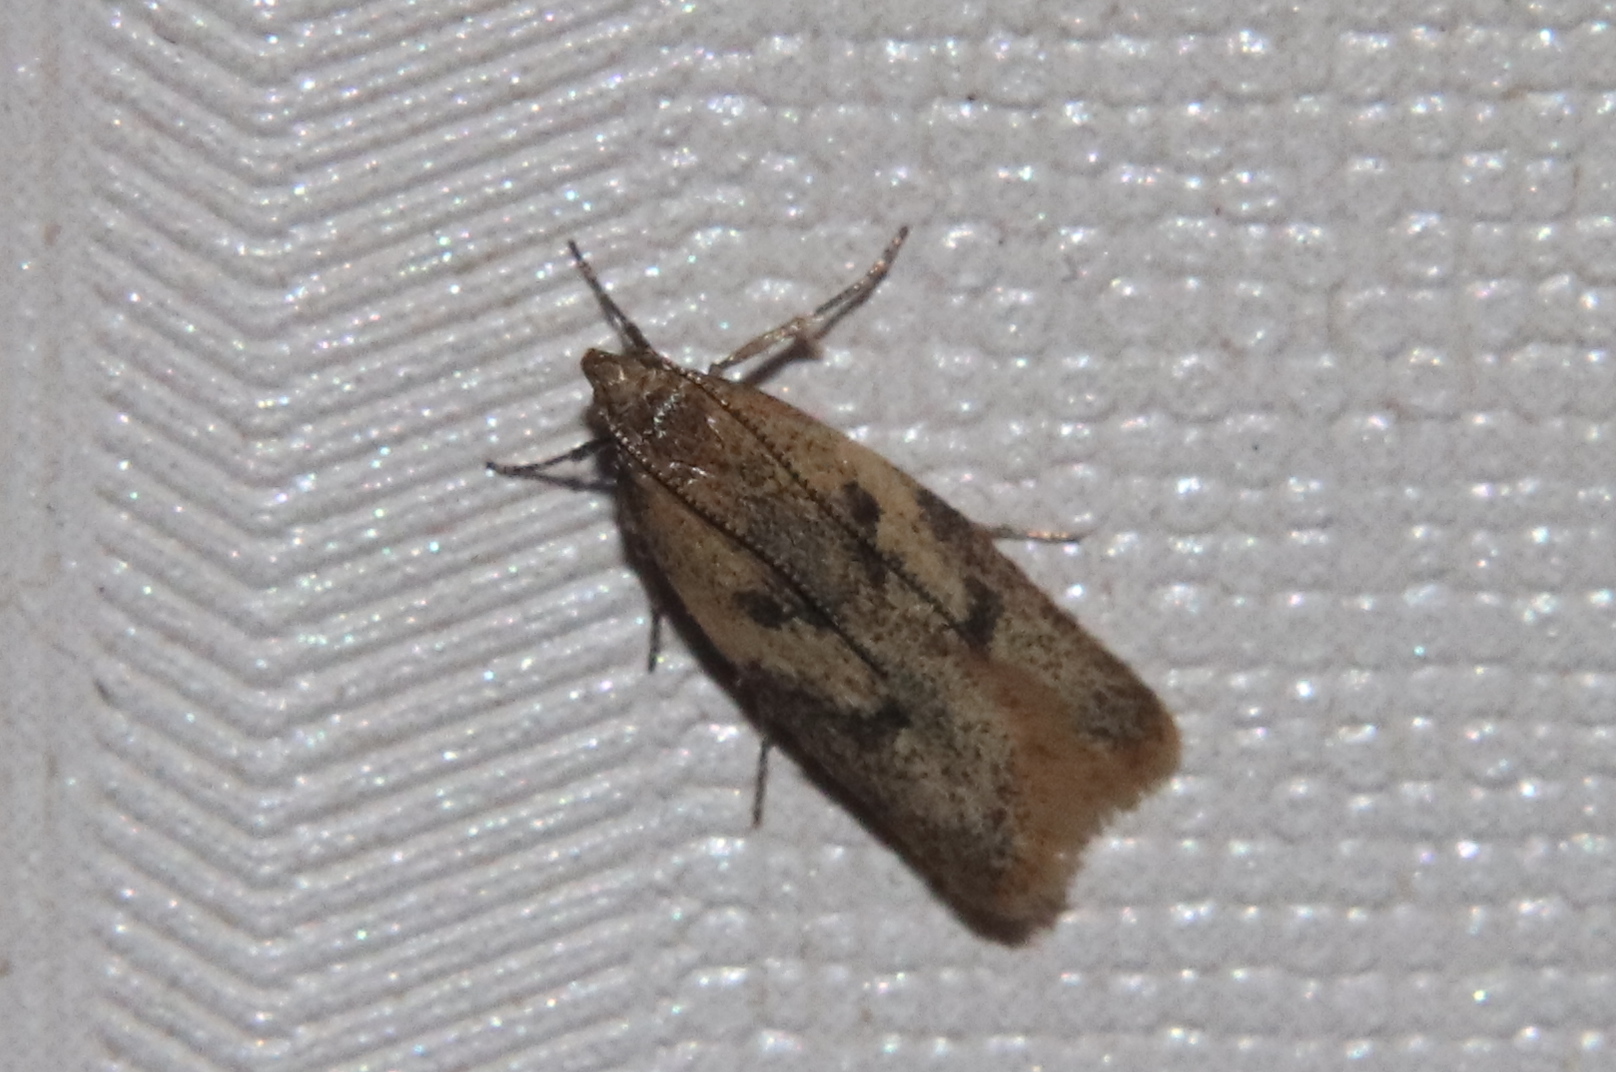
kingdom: Animalia
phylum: Arthropoda
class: Insecta
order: Lepidoptera
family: Oecophoridae
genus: Gymnobathra
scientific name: Gymnobathra sarcoxantha
